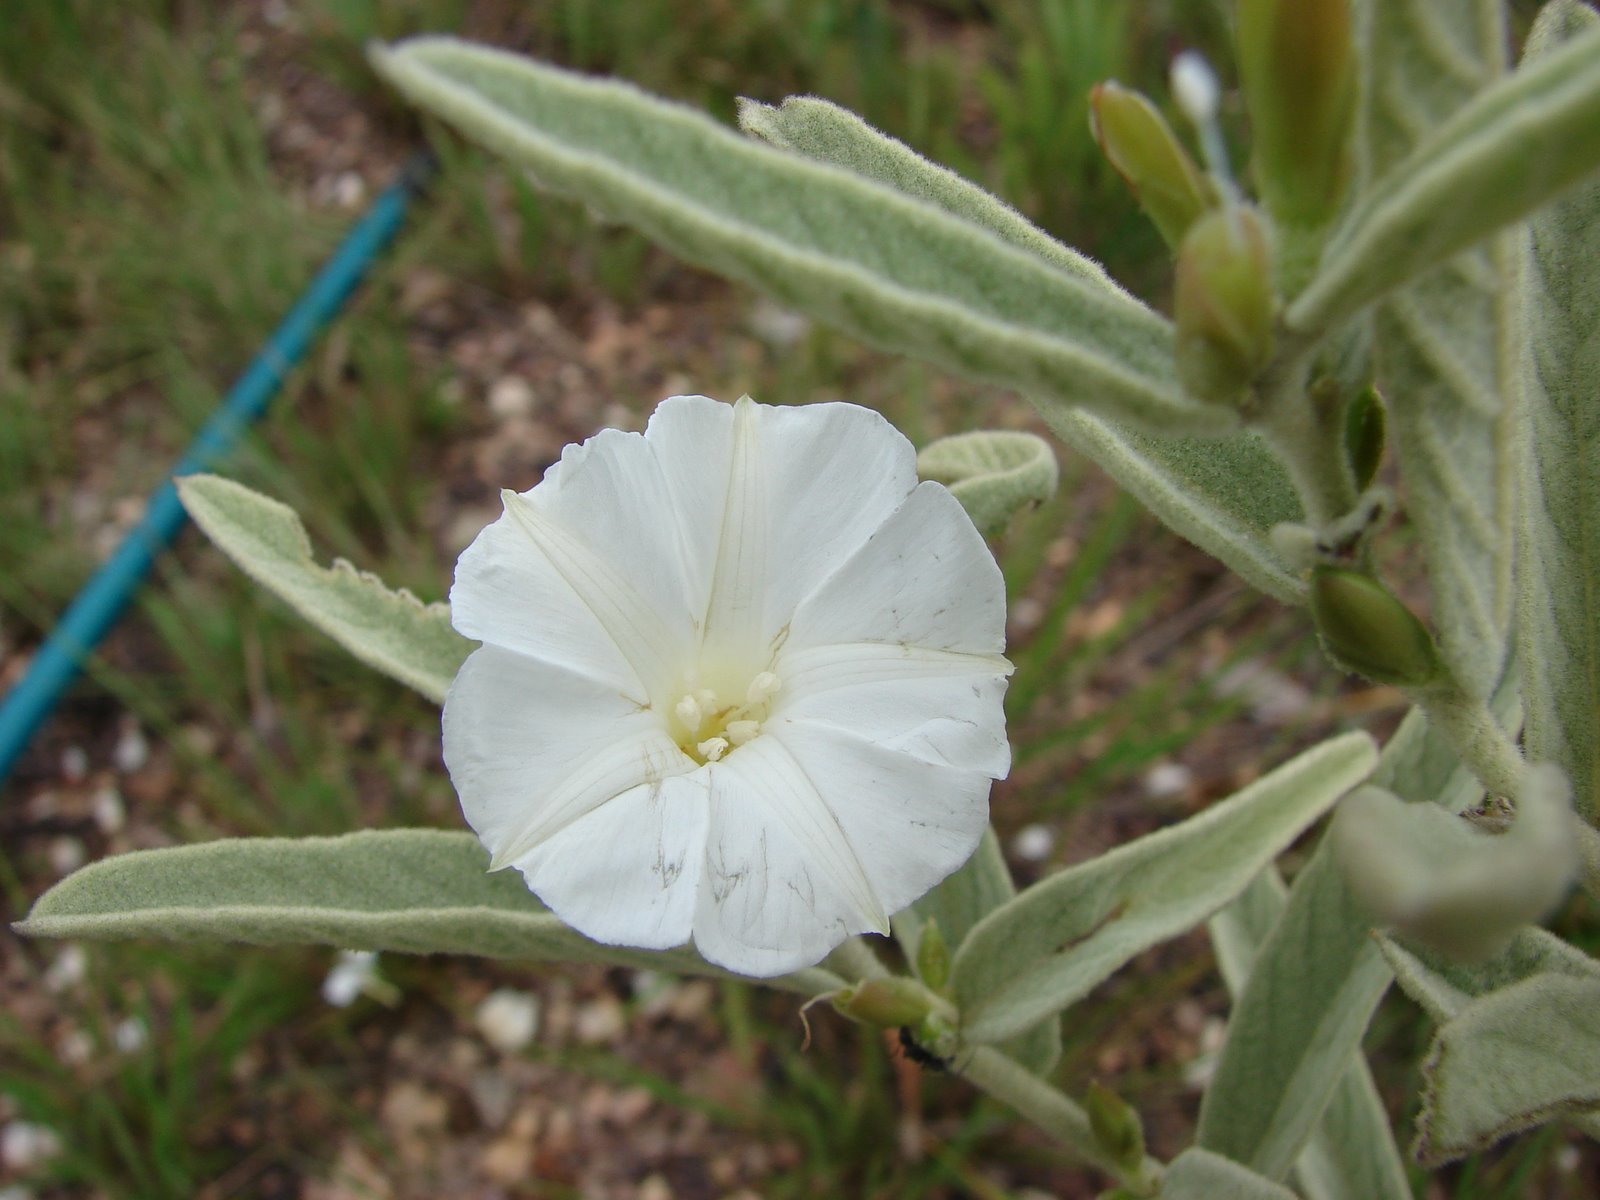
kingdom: Plantae
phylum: Tracheophyta
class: Magnoliopsida
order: Solanales
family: Convolvulaceae
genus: Distimake
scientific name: Distimake tomentosus
